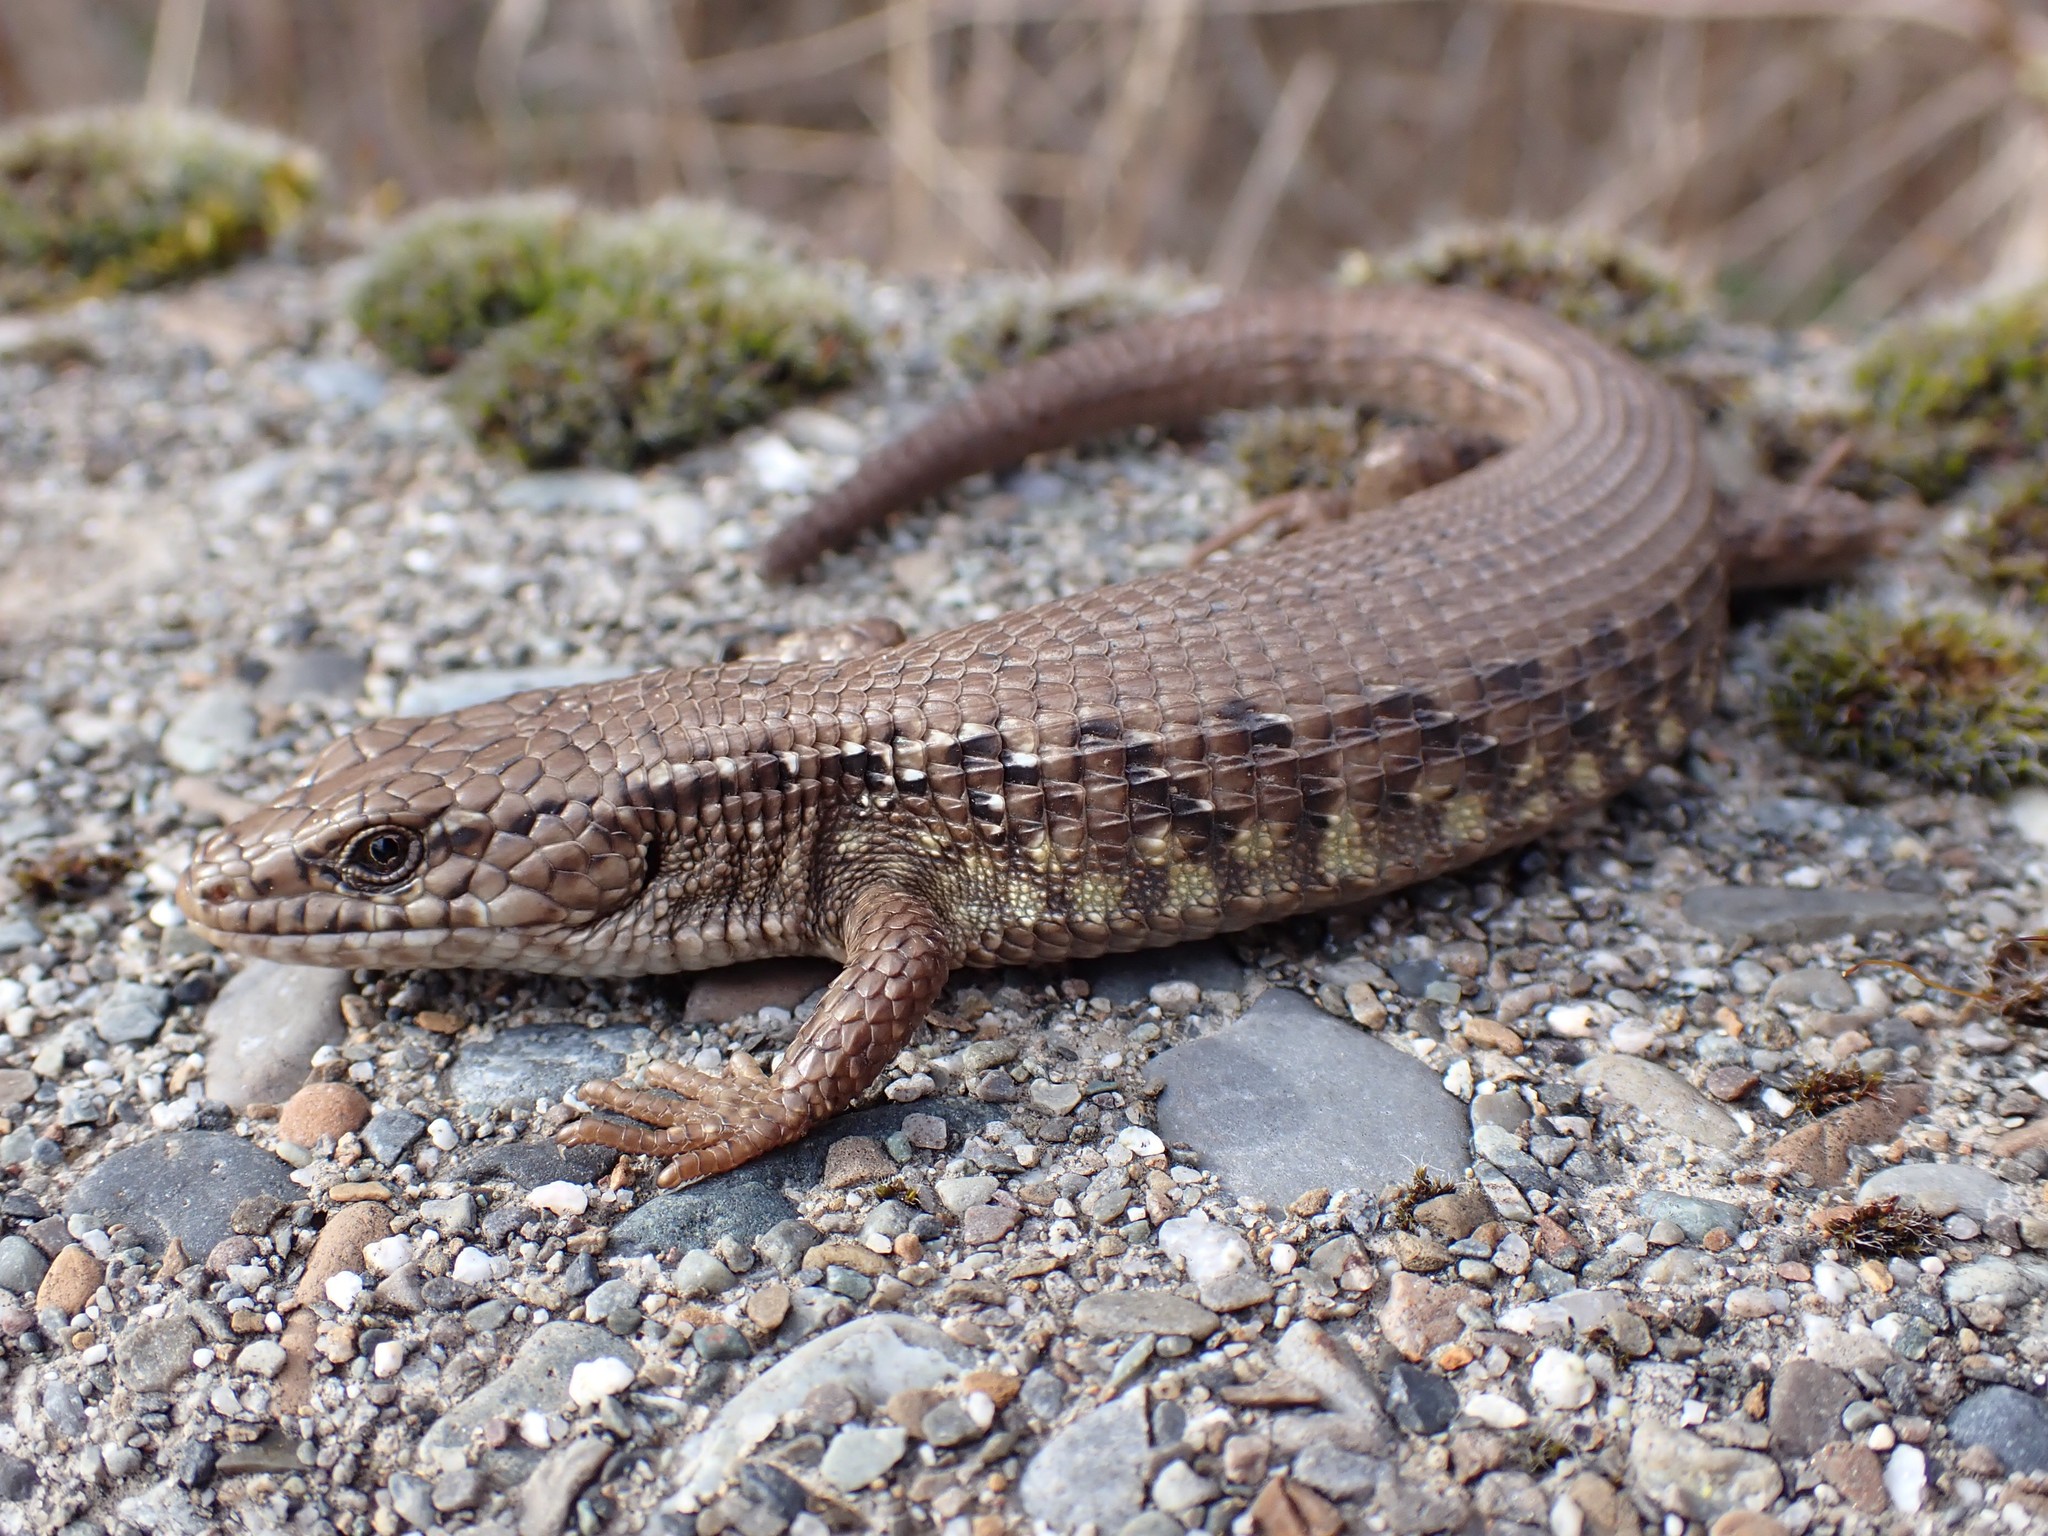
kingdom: Animalia
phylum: Chordata
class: Squamata
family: Anguidae
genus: Elgaria
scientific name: Elgaria coerulea
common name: Northern alligator lizard
